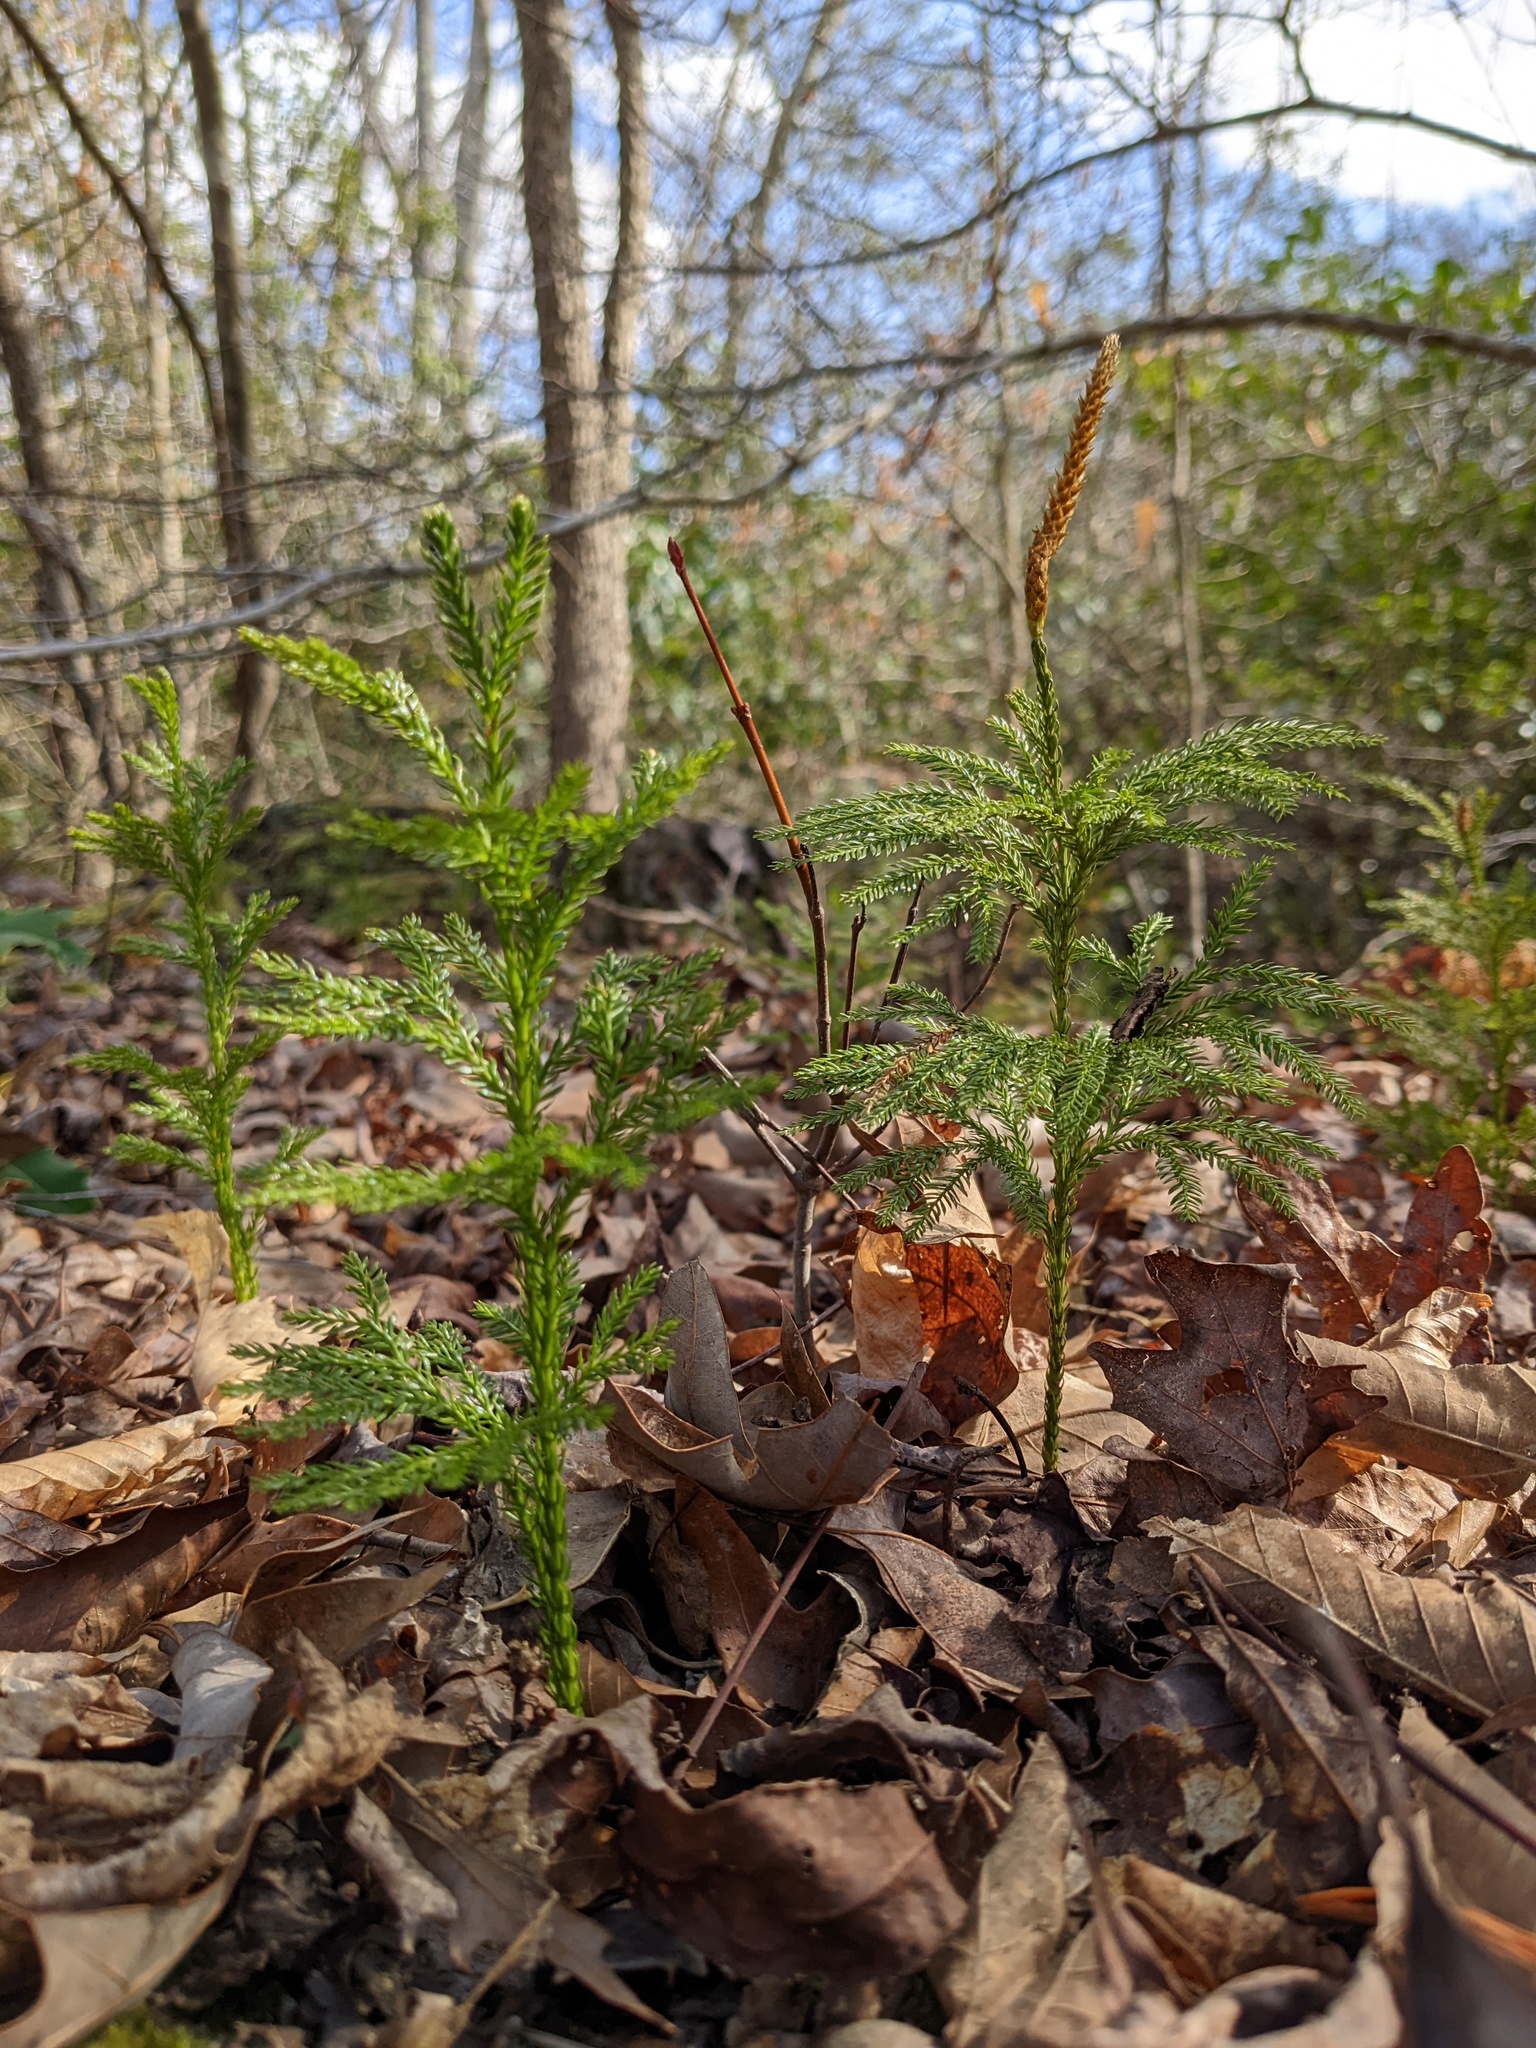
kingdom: Plantae
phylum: Tracheophyta
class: Lycopodiopsida
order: Lycopodiales
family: Lycopodiaceae
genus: Dendrolycopodium
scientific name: Dendrolycopodium obscurum
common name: Common ground-pine
